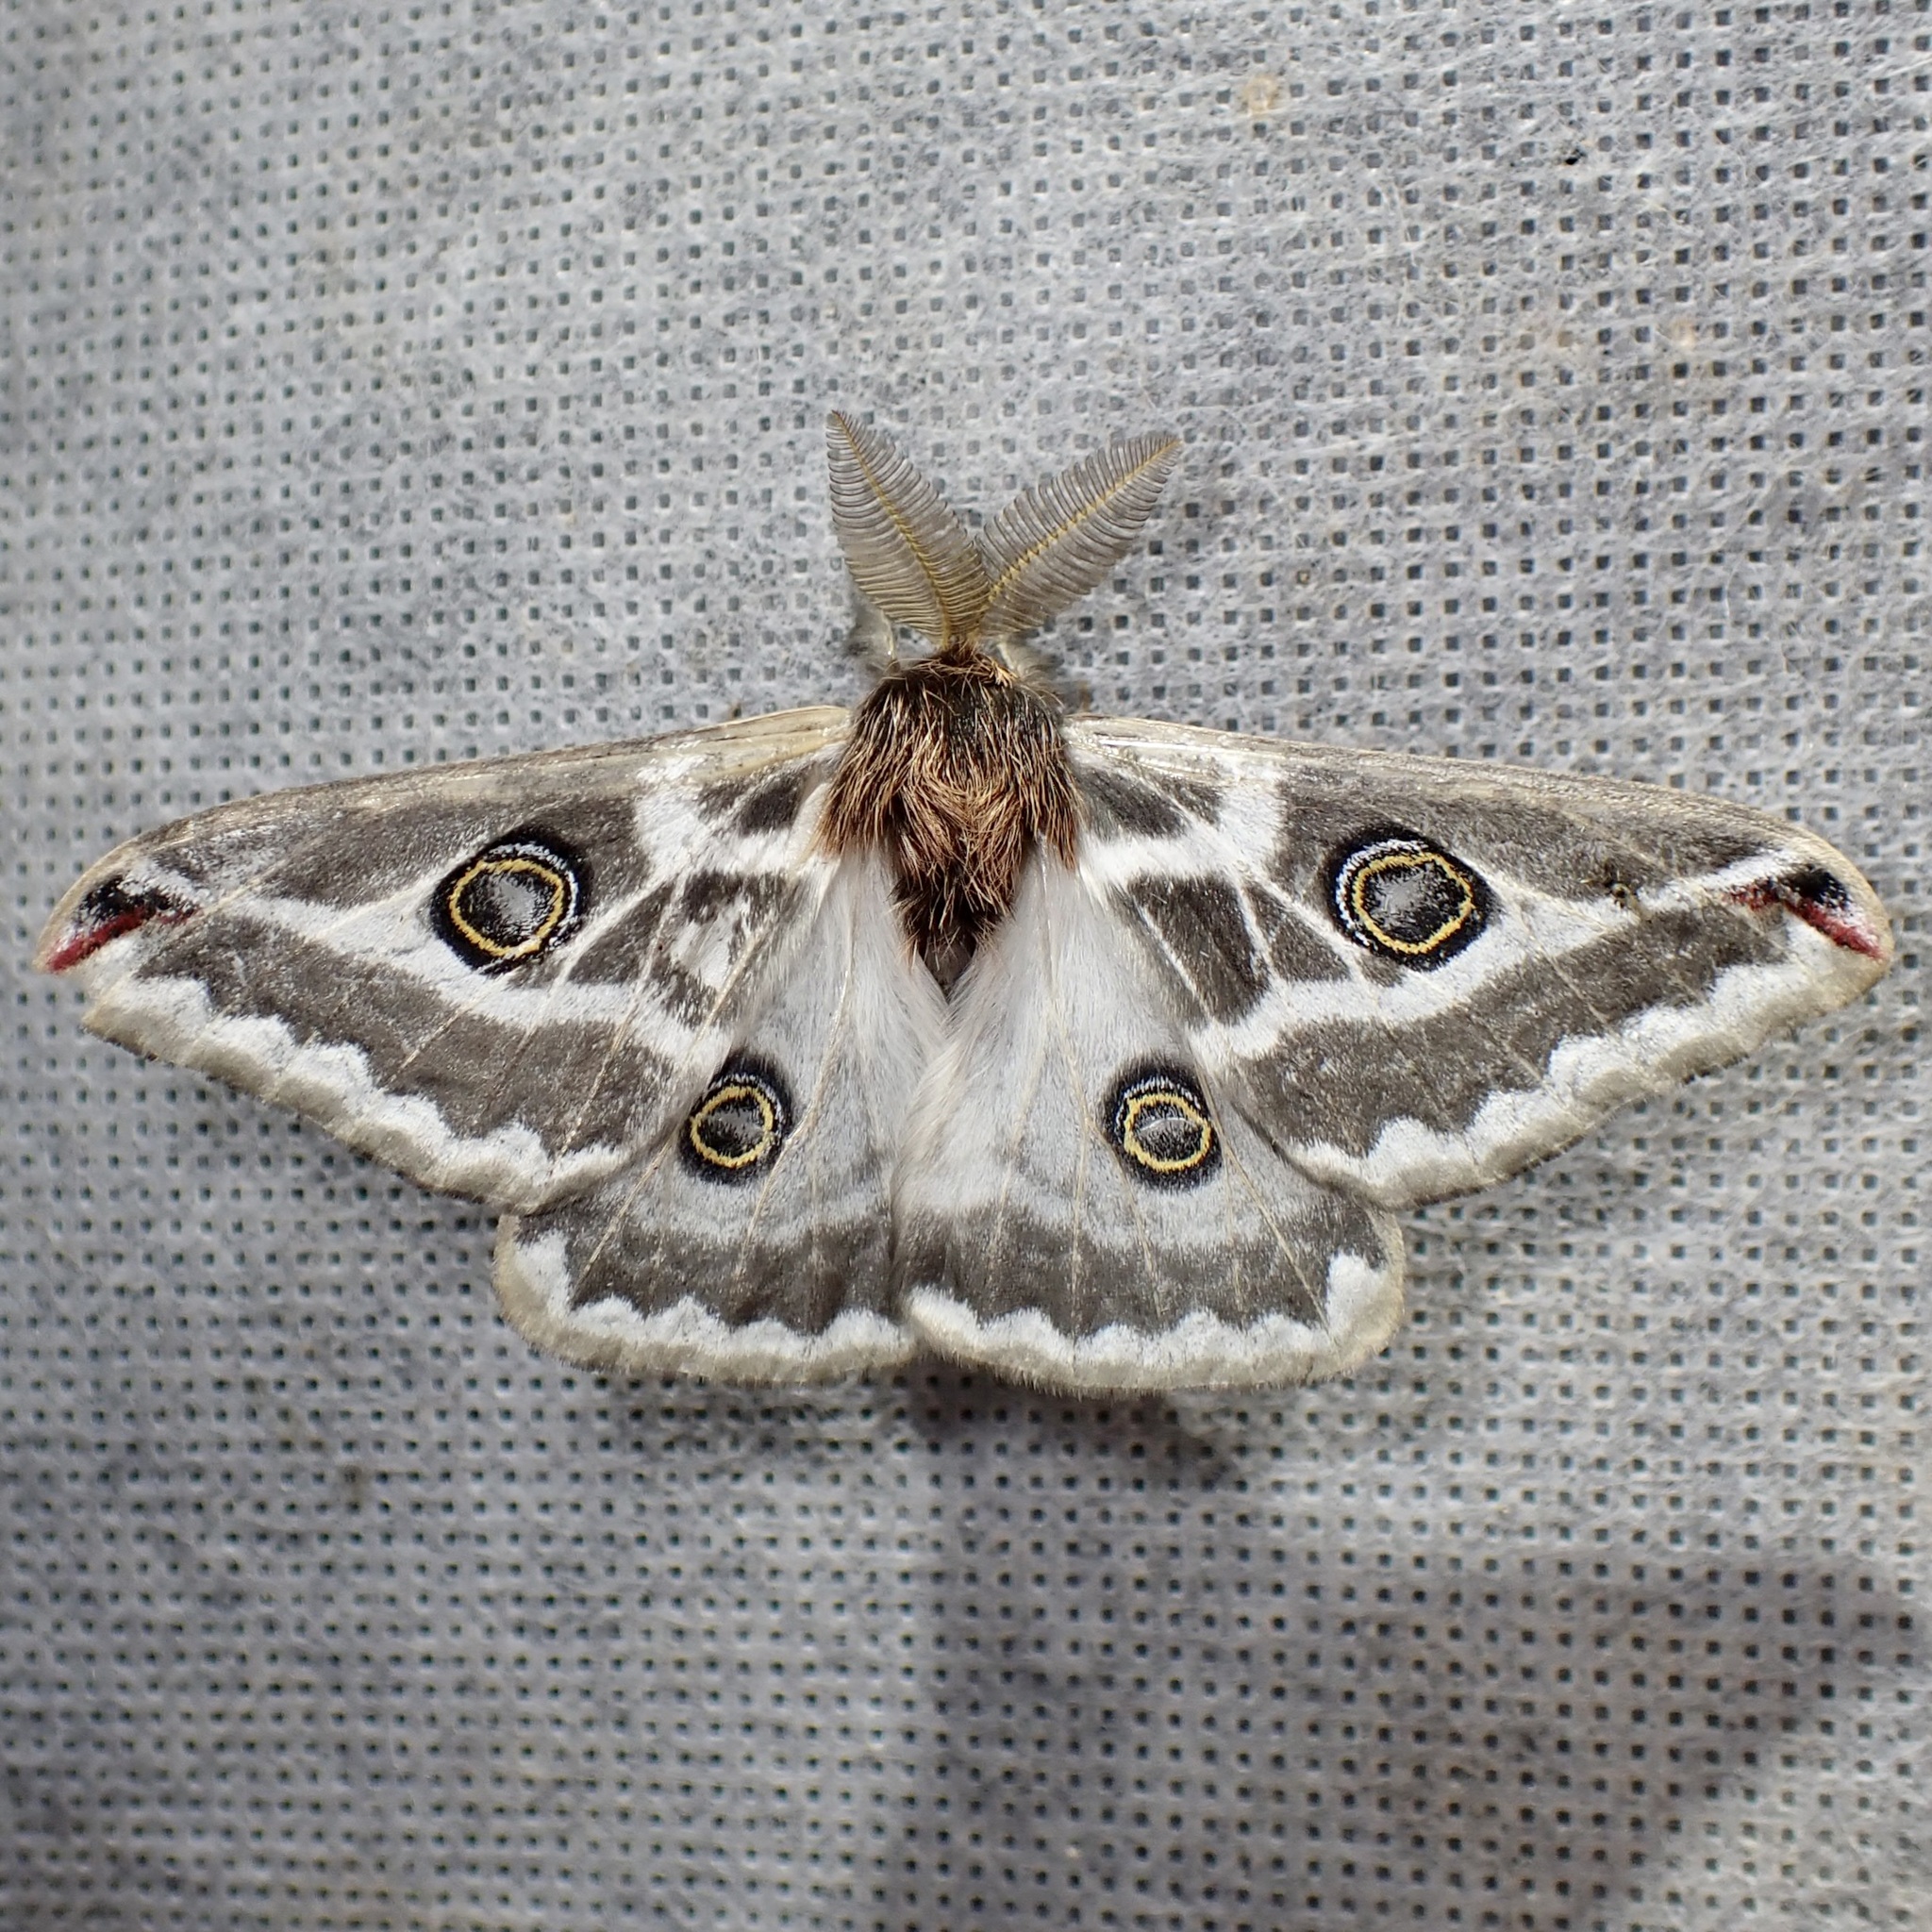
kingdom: Animalia
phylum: Arthropoda
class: Insecta
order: Lepidoptera
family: Saturniidae
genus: Saturnia
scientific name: Saturnia anona
